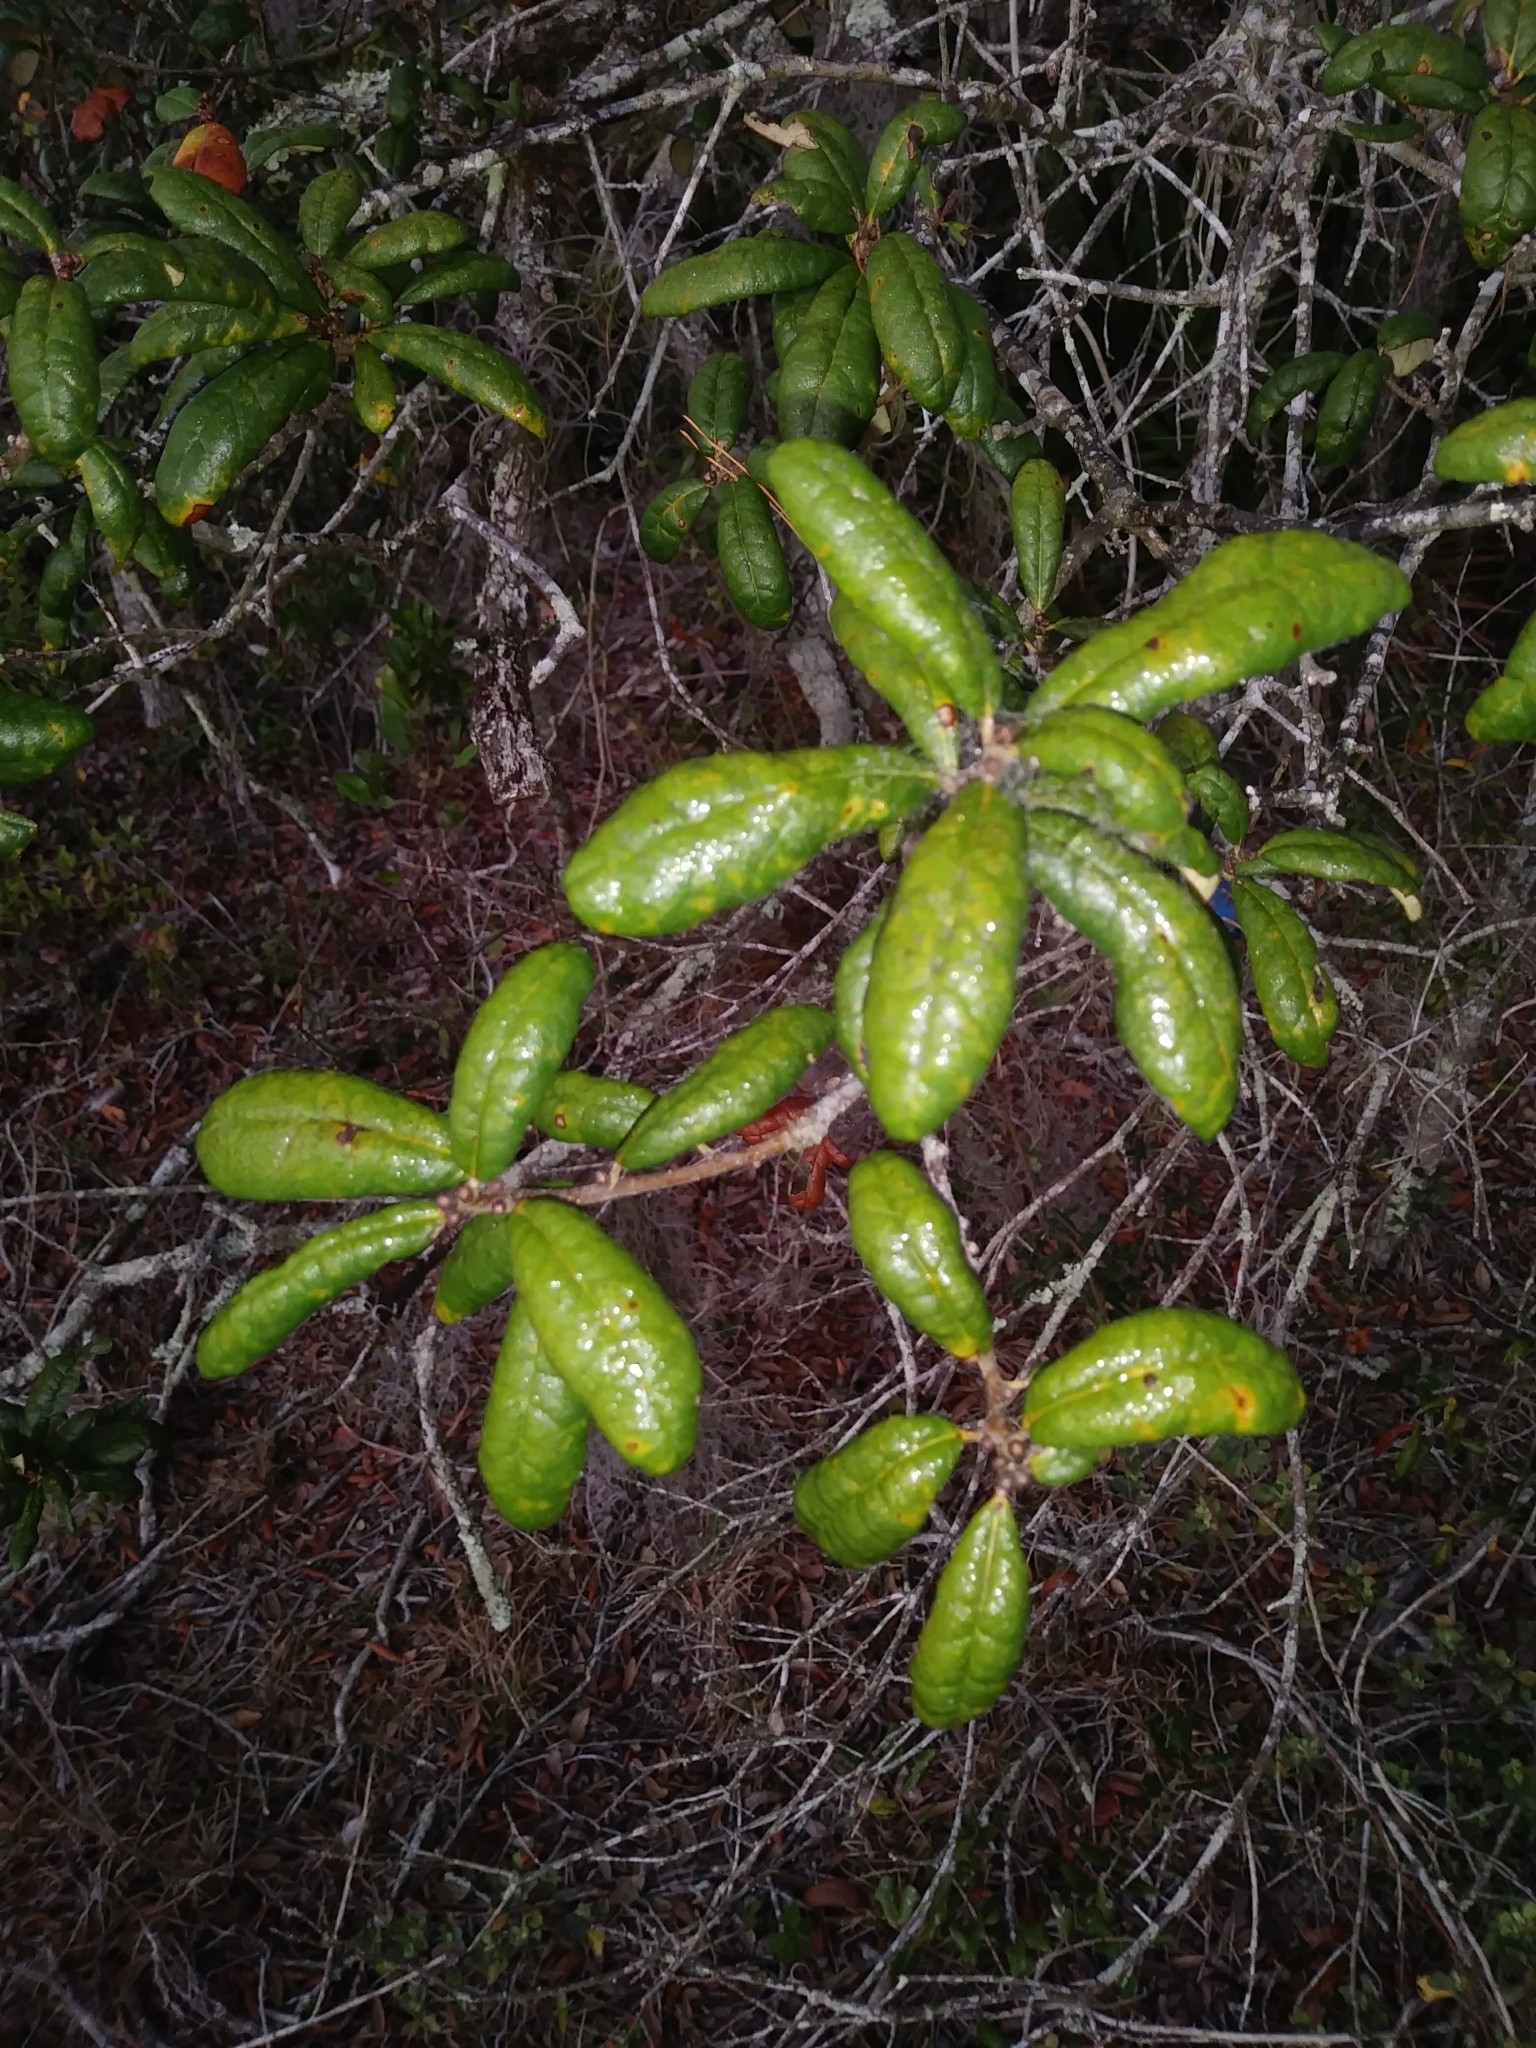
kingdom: Plantae
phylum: Tracheophyta
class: Magnoliopsida
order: Fagales
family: Fagaceae
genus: Quercus
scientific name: Quercus geminata
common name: Sand live oak
